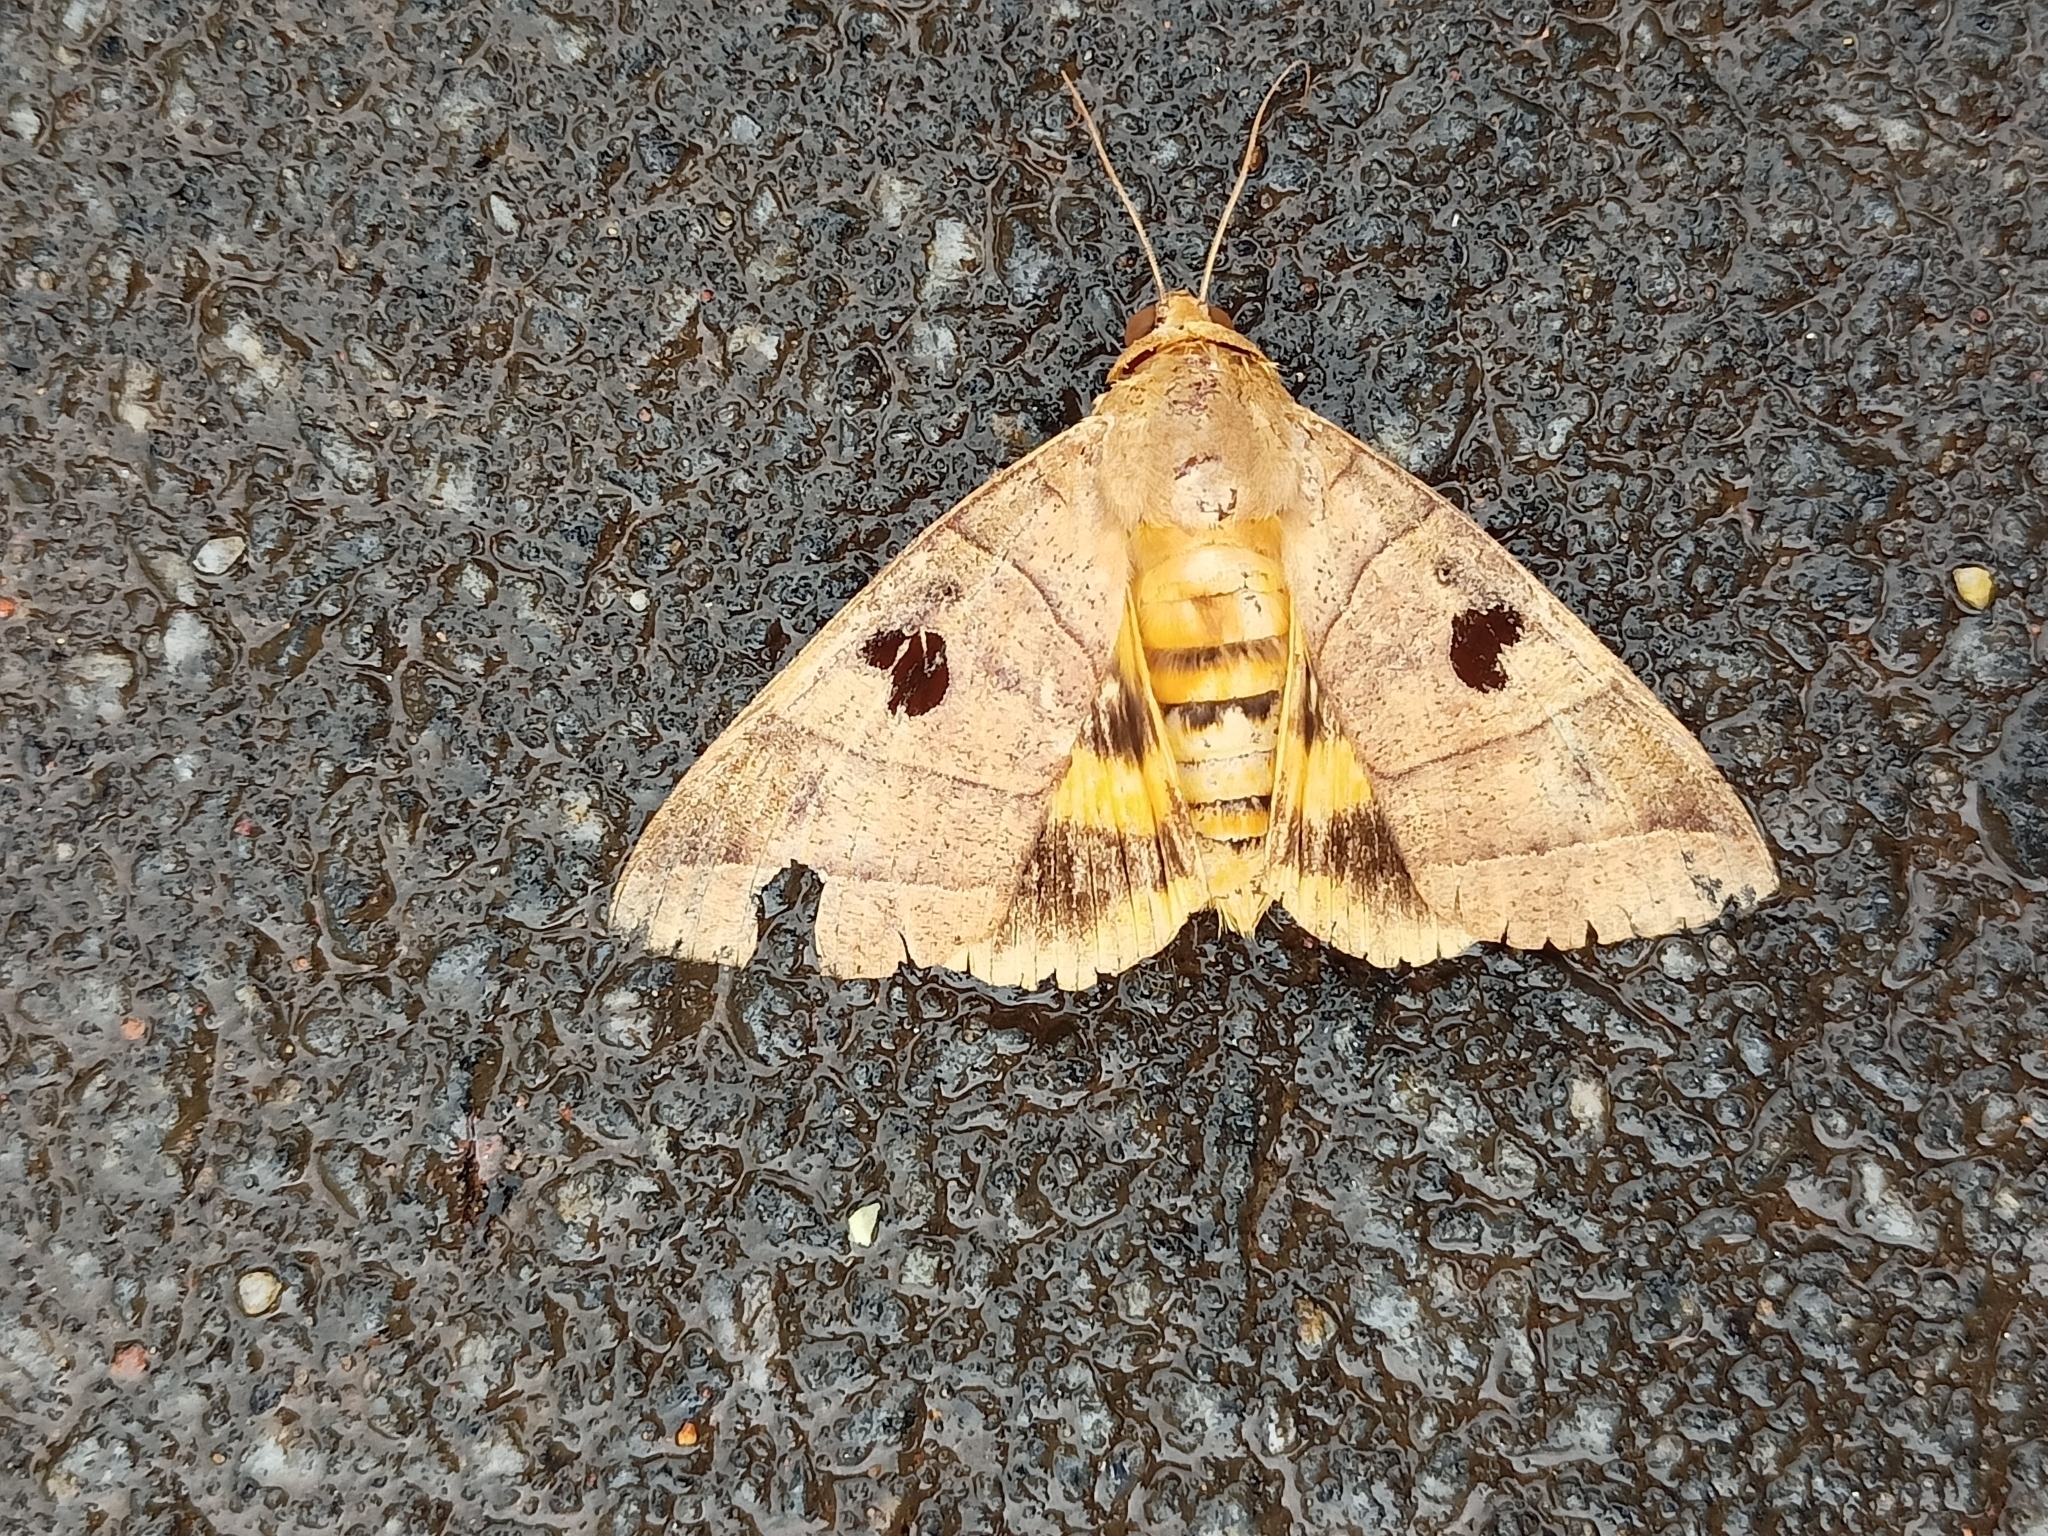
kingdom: Animalia
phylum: Arthropoda
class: Insecta
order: Lepidoptera
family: Erebidae
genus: Thyas
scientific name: Thyas coronata
